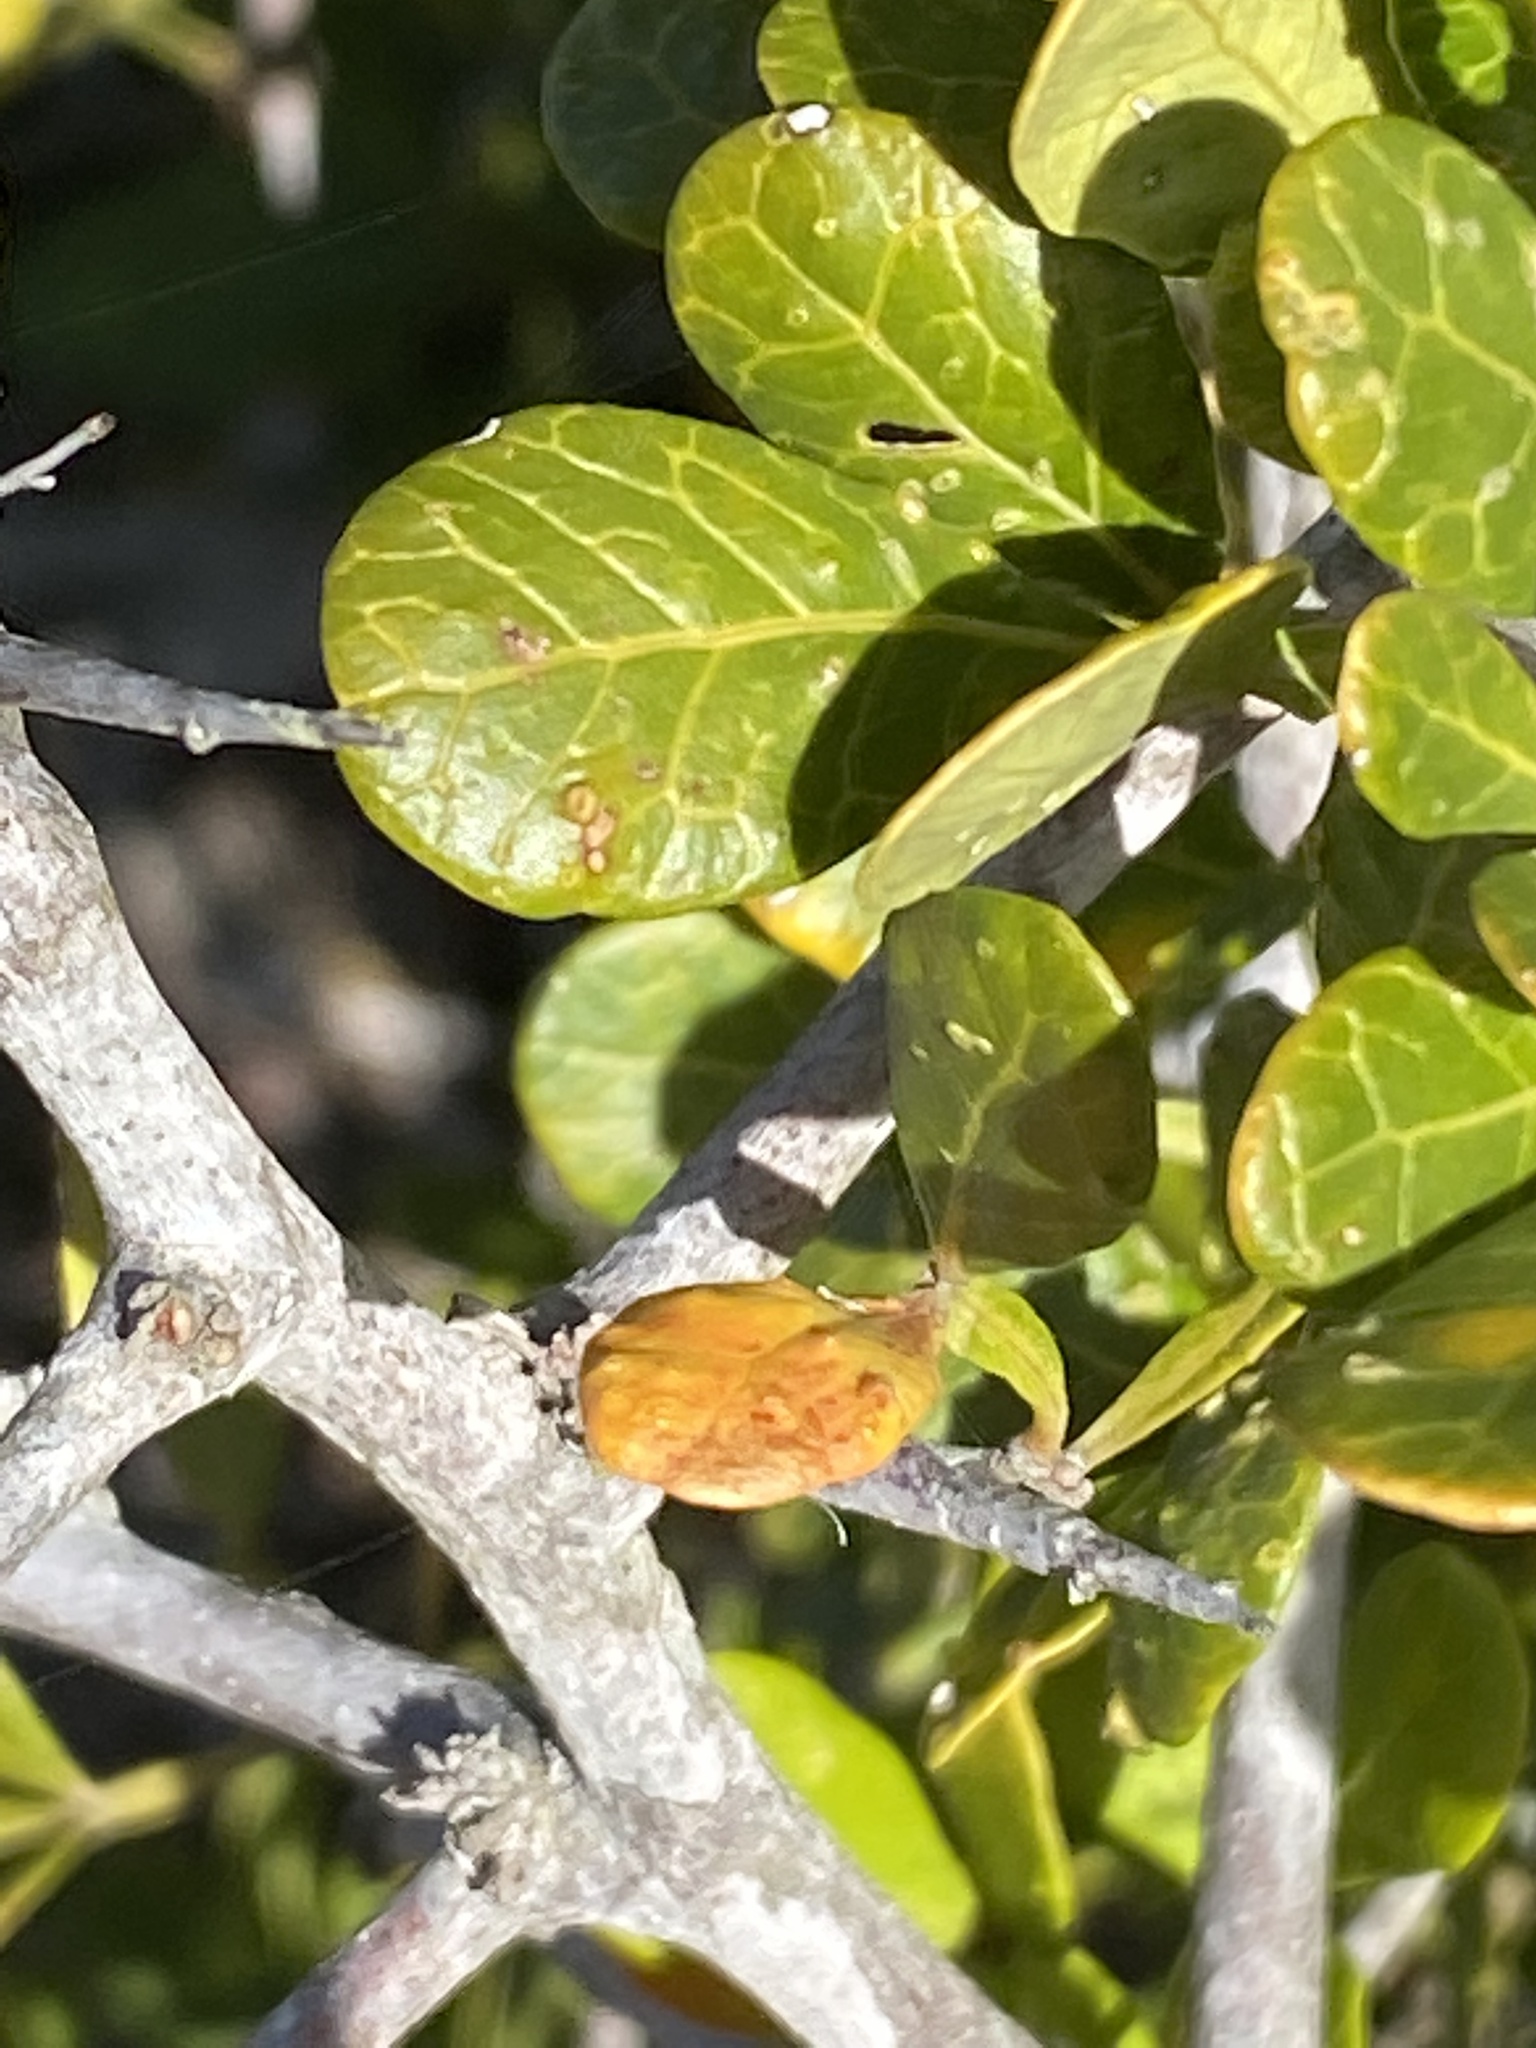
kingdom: Plantae
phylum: Tracheophyta
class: Magnoliopsida
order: Sapindales
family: Anacardiaceae
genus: Searsia
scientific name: Searsia pterota
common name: Winged currant
